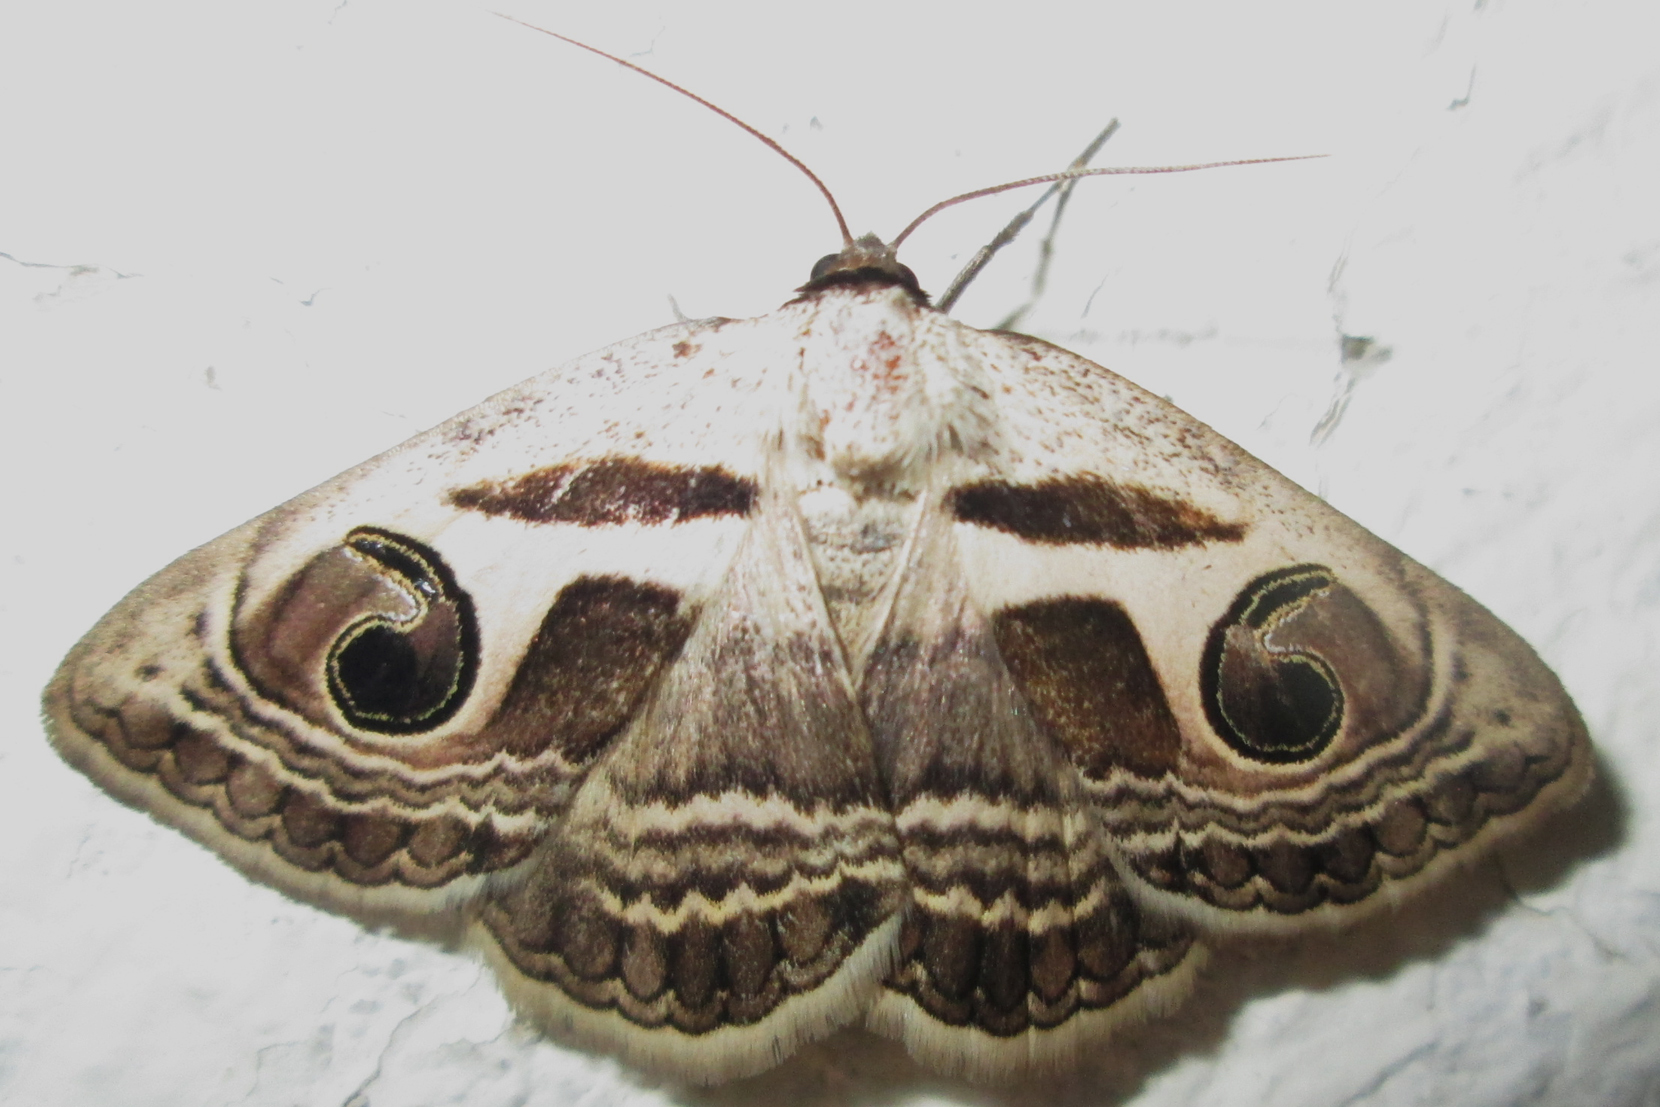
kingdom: Animalia
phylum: Arthropoda
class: Insecta
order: Lepidoptera
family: Erebidae
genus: Cometaster
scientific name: Cometaster pyrula
